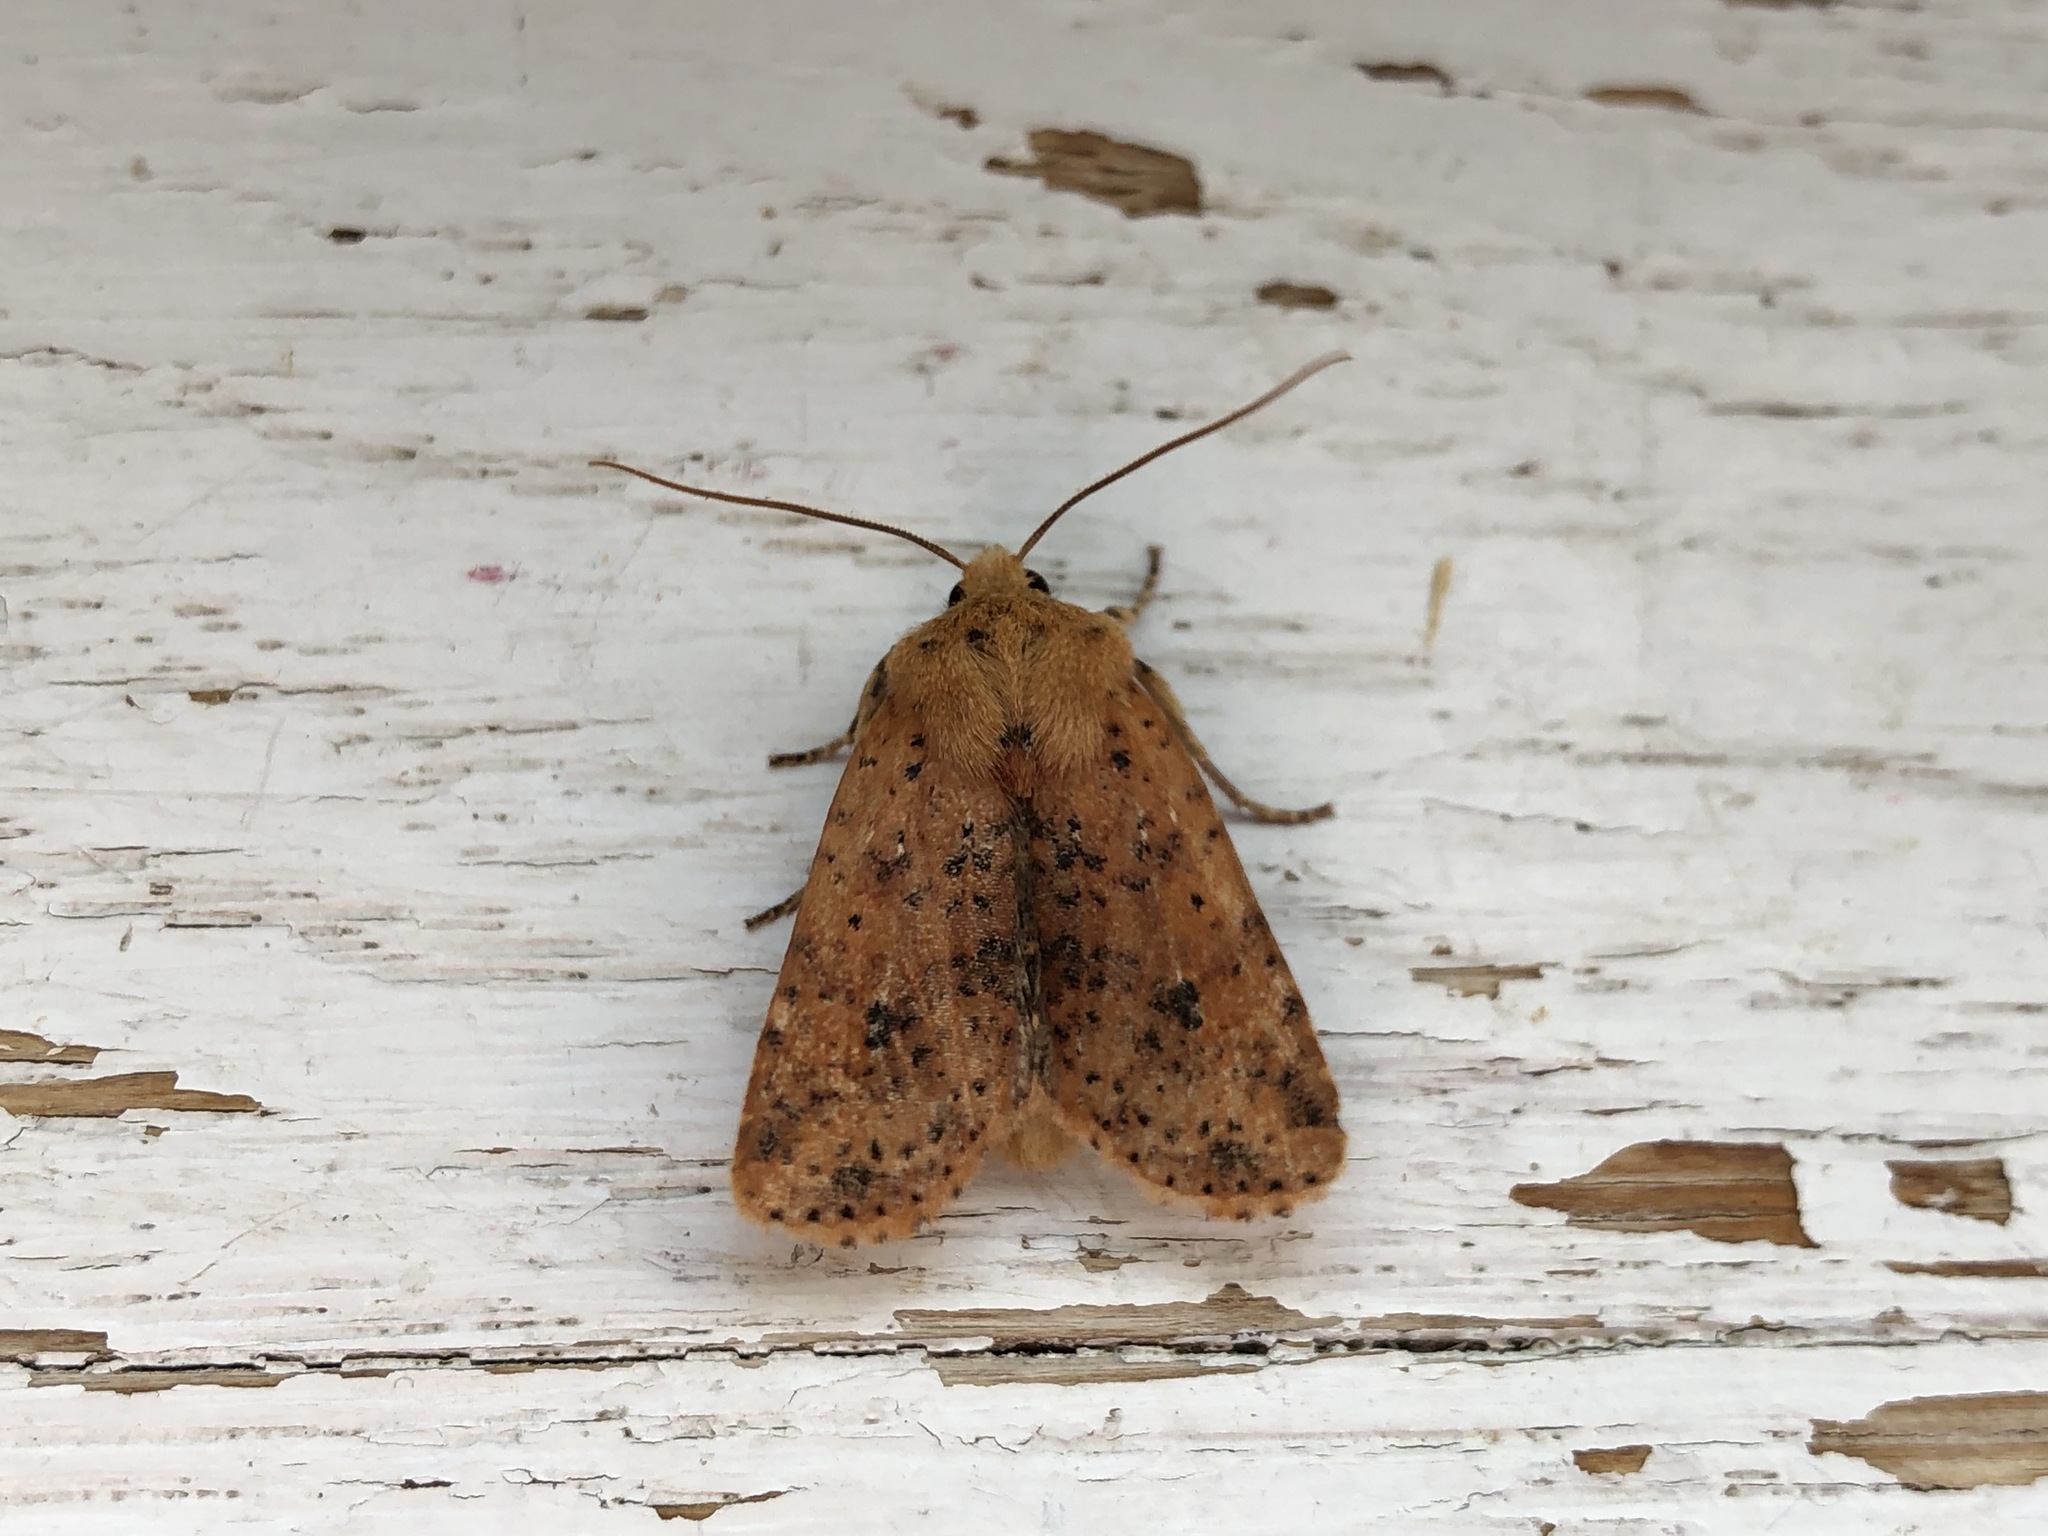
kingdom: Animalia
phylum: Arthropoda
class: Insecta
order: Lepidoptera
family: Noctuidae
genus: Conistra
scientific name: Conistra rubiginea
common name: Dotted chestnut
